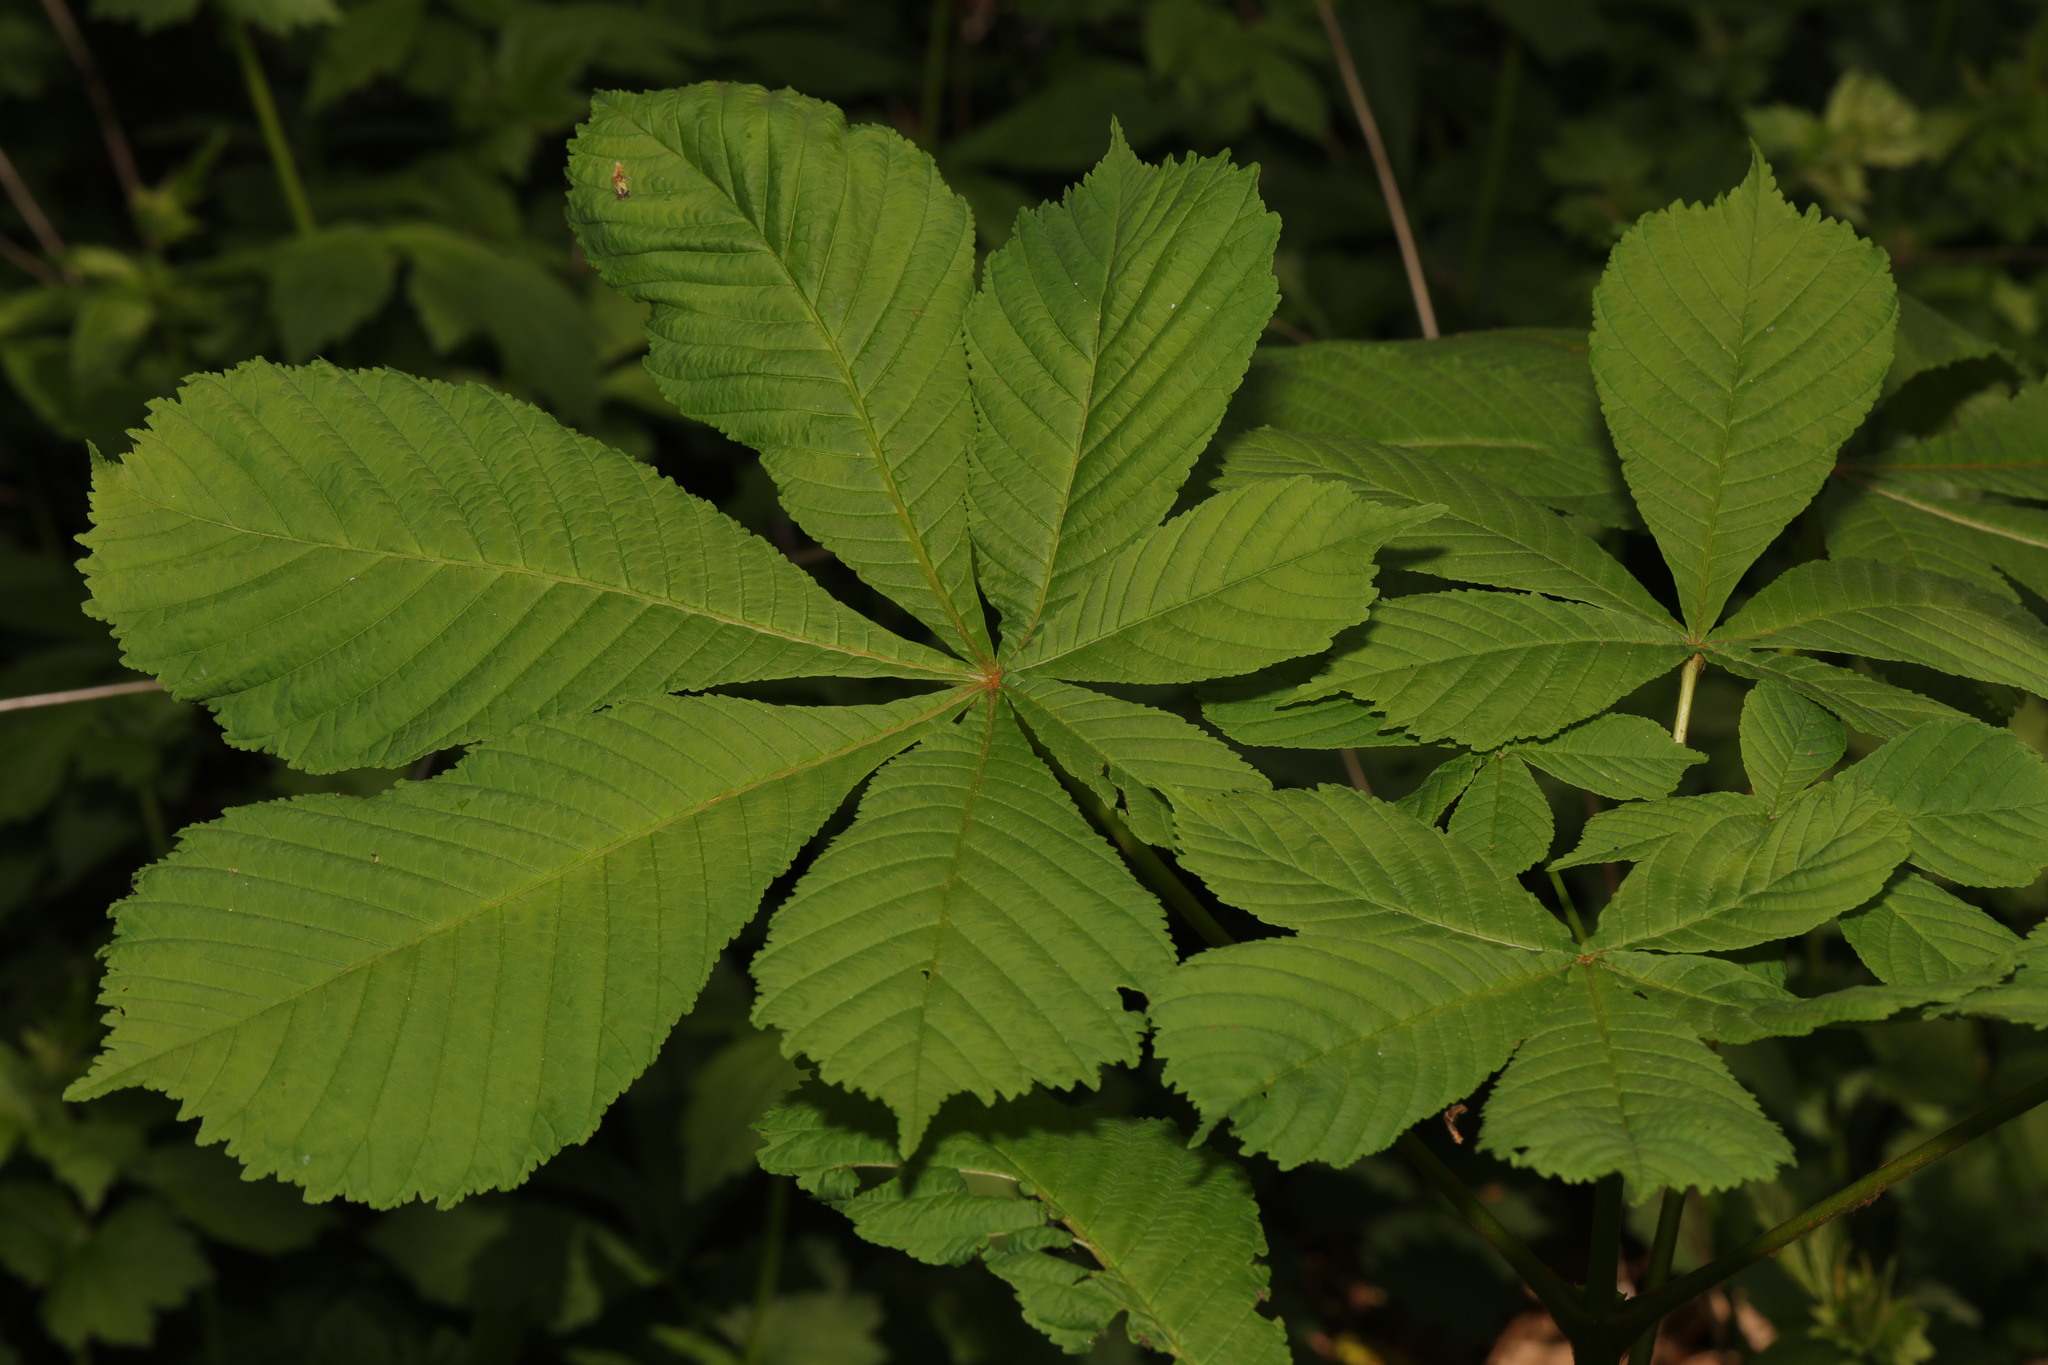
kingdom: Plantae
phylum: Tracheophyta
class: Magnoliopsida
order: Sapindales
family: Sapindaceae
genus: Aesculus
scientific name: Aesculus hippocastanum
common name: Horse-chestnut
